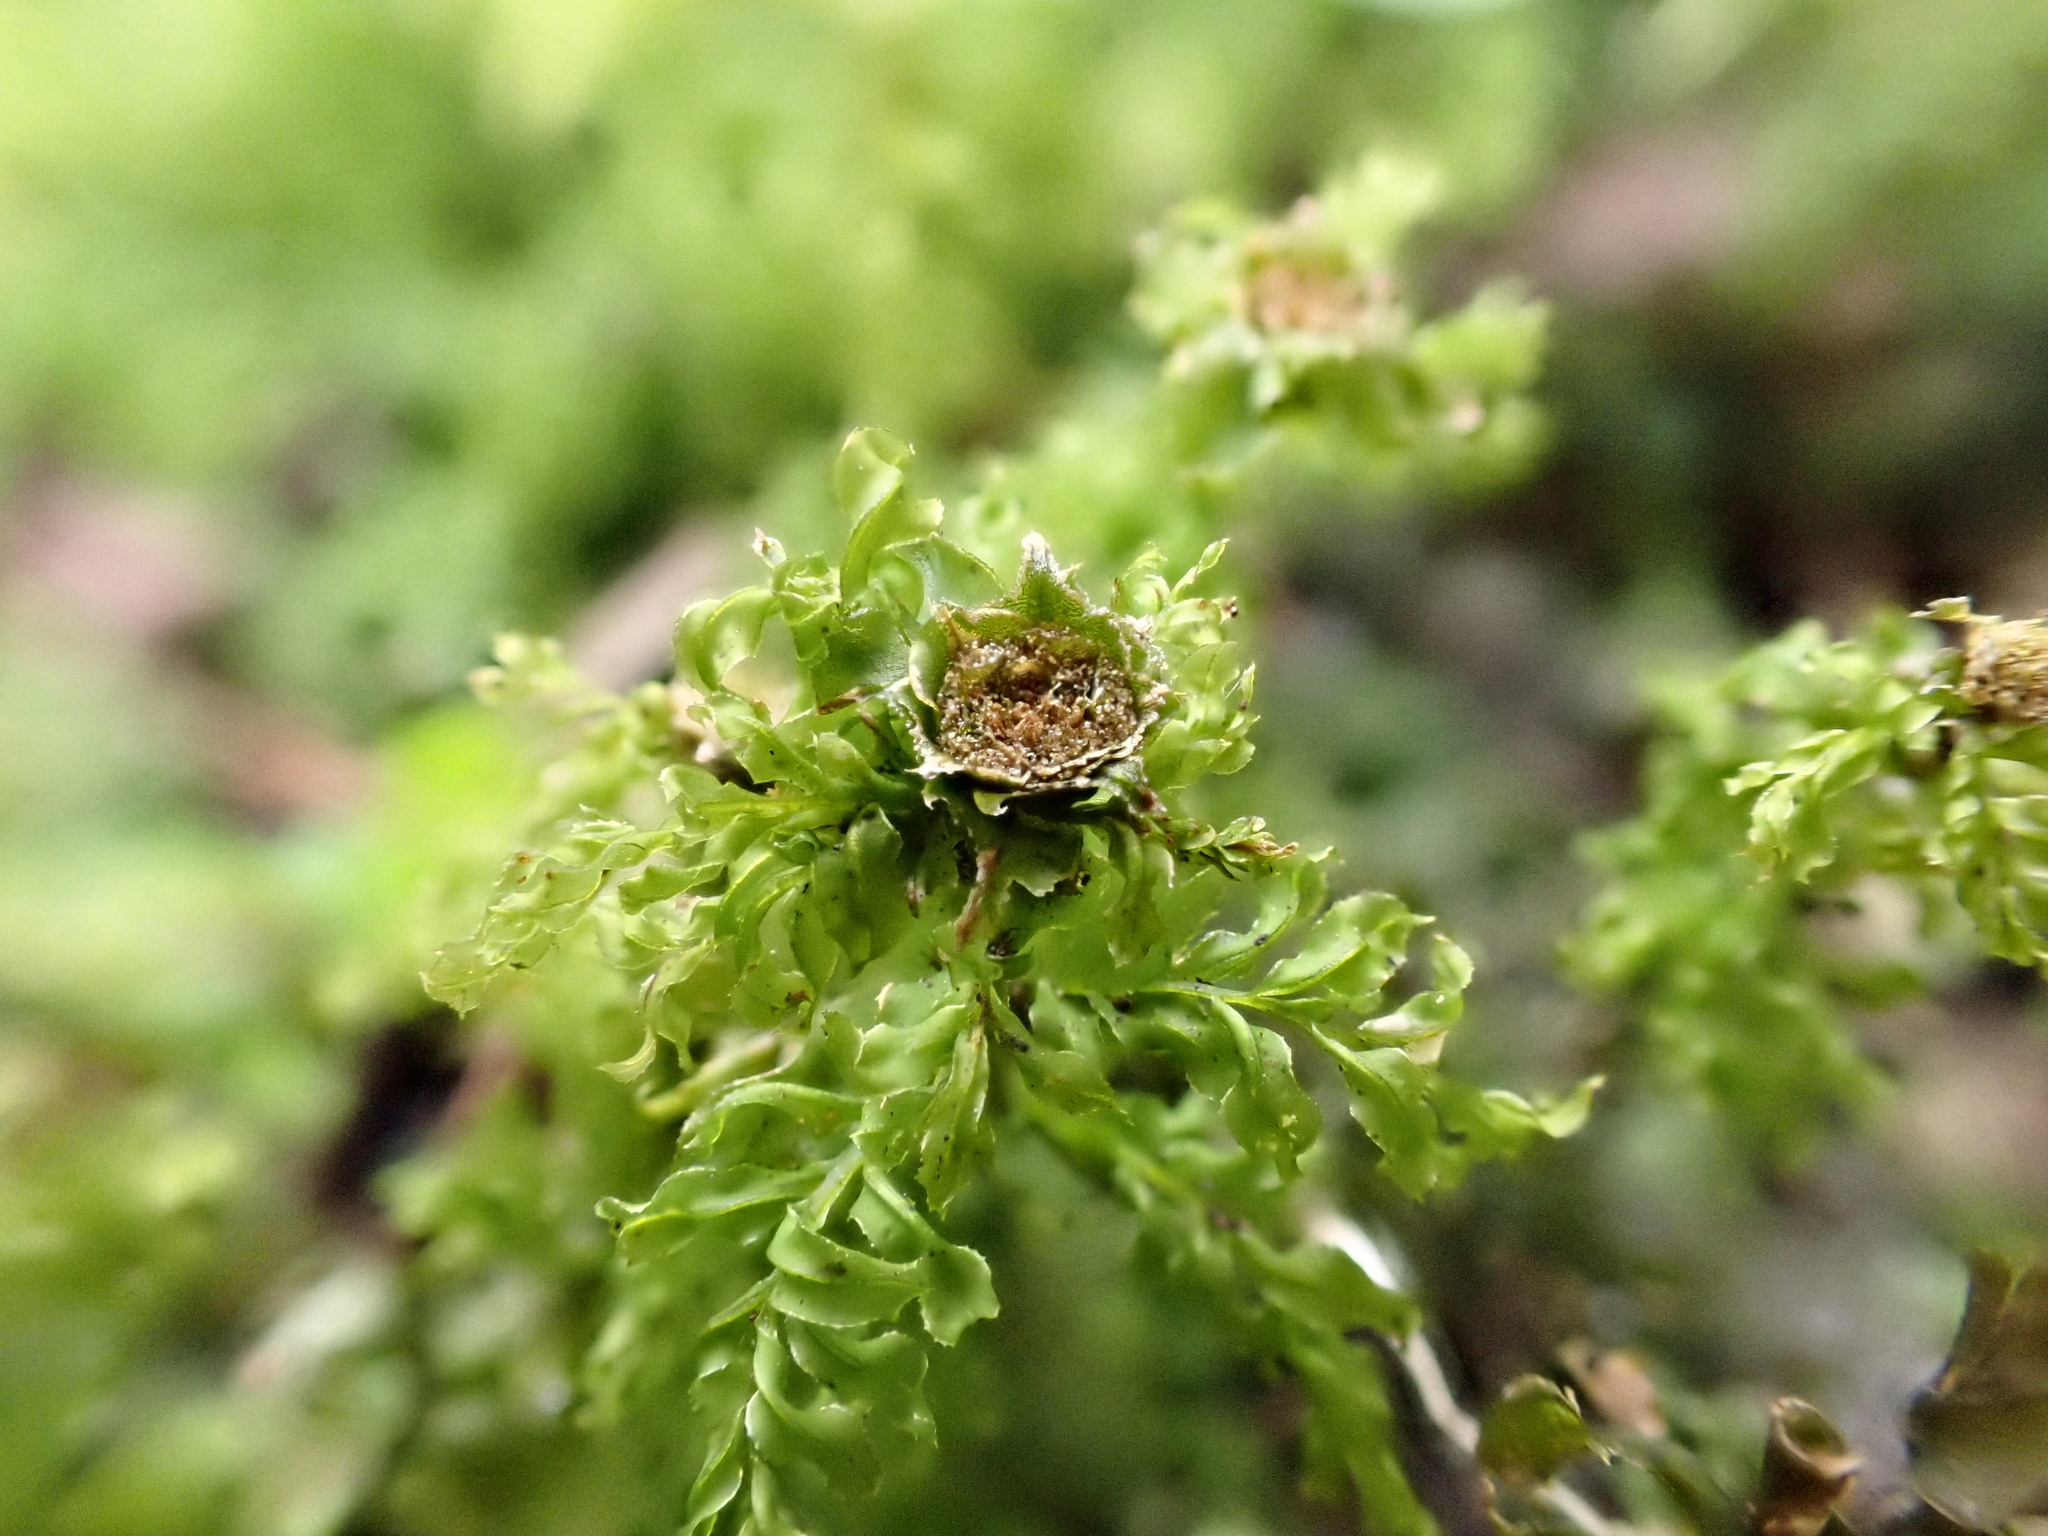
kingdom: Plantae
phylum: Bryophyta
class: Bryopsida
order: Bryales
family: Mniaceae
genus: Plagiomnium
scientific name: Plagiomnium undulatum
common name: Hart's-tongue thyme-moss
